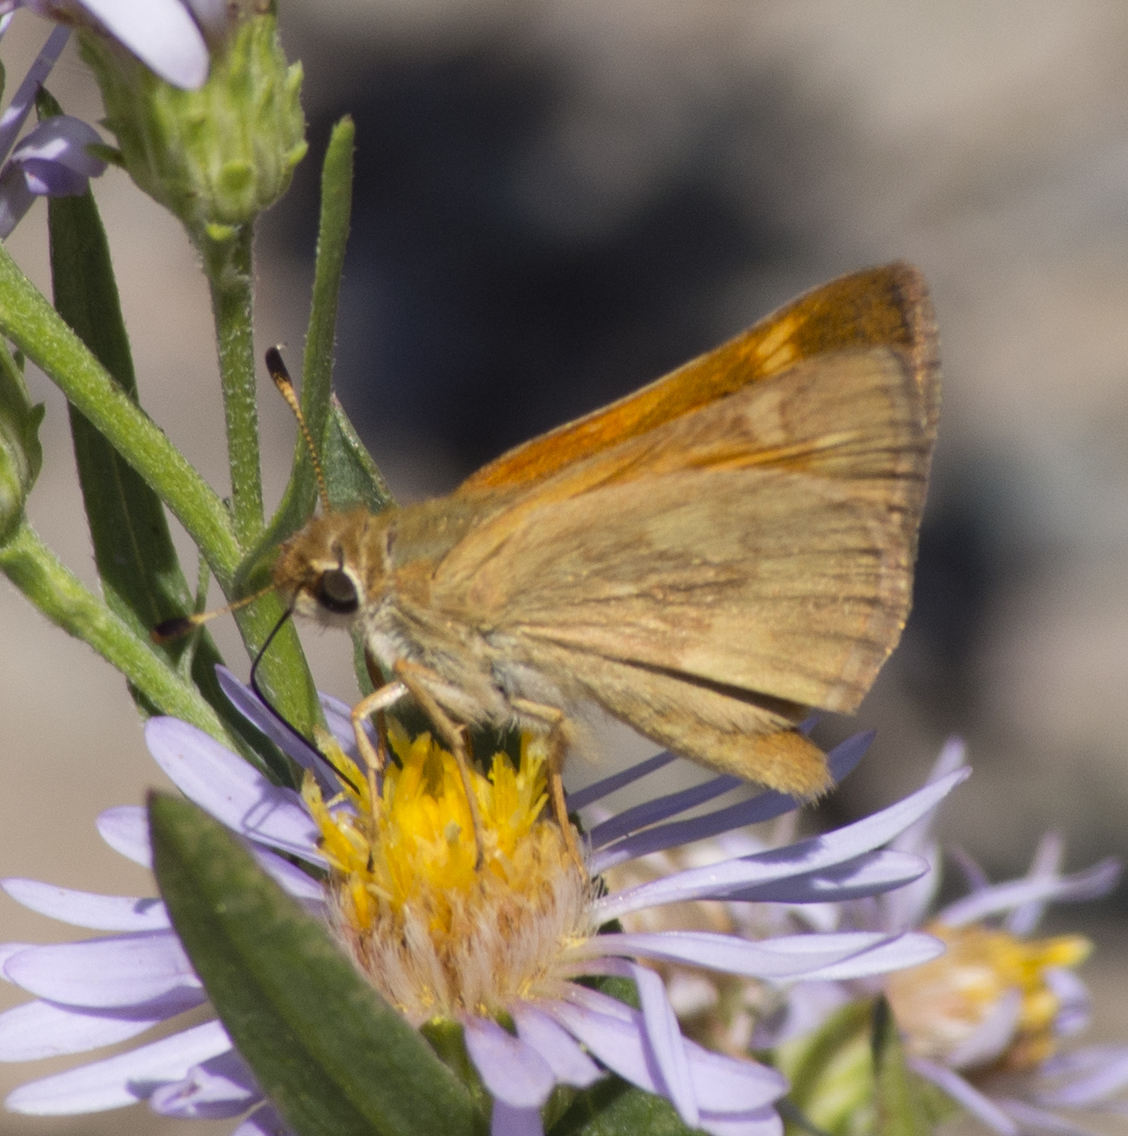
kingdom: Animalia
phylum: Arthropoda
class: Insecta
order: Lepidoptera
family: Hesperiidae
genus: Ochlodes
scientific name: Ochlodes sylvanoides
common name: Woodland skipper
